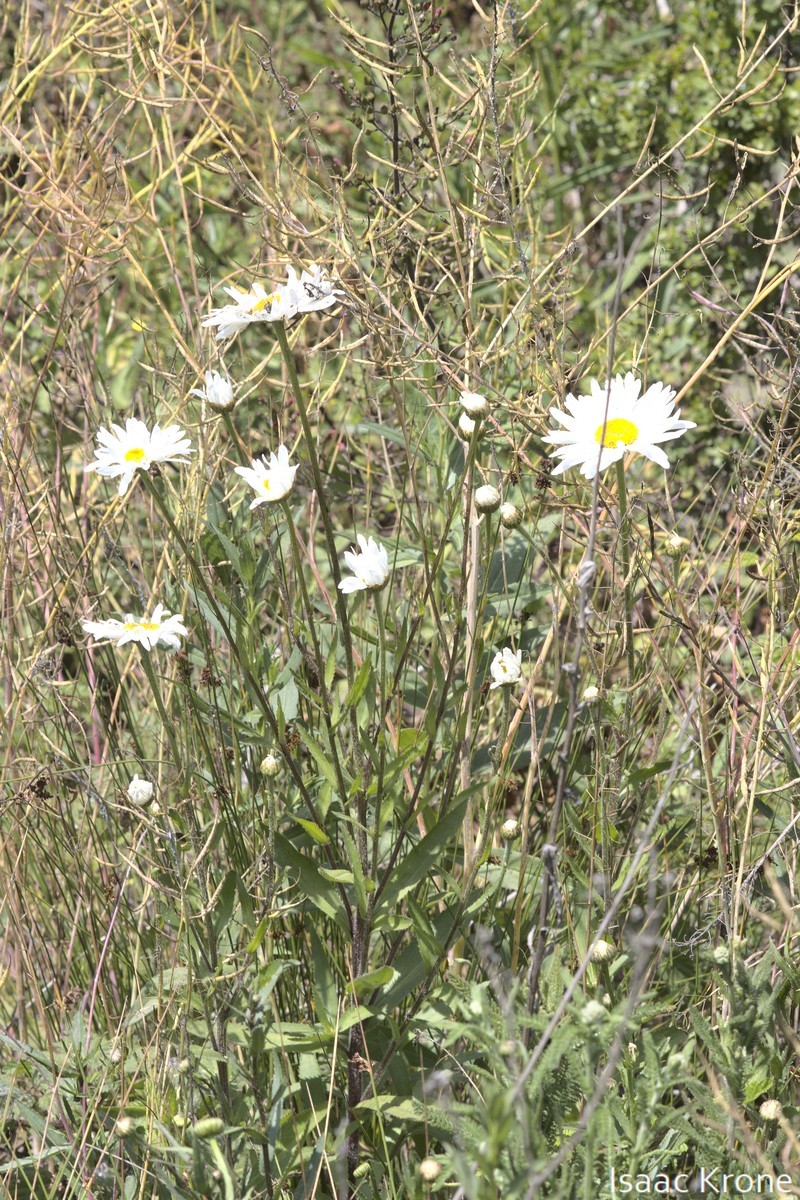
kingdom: Plantae
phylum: Tracheophyta
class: Magnoliopsida
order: Asterales
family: Asteraceae
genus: Leucanthemum
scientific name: Leucanthemum maximum
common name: Max chrysanthemum
